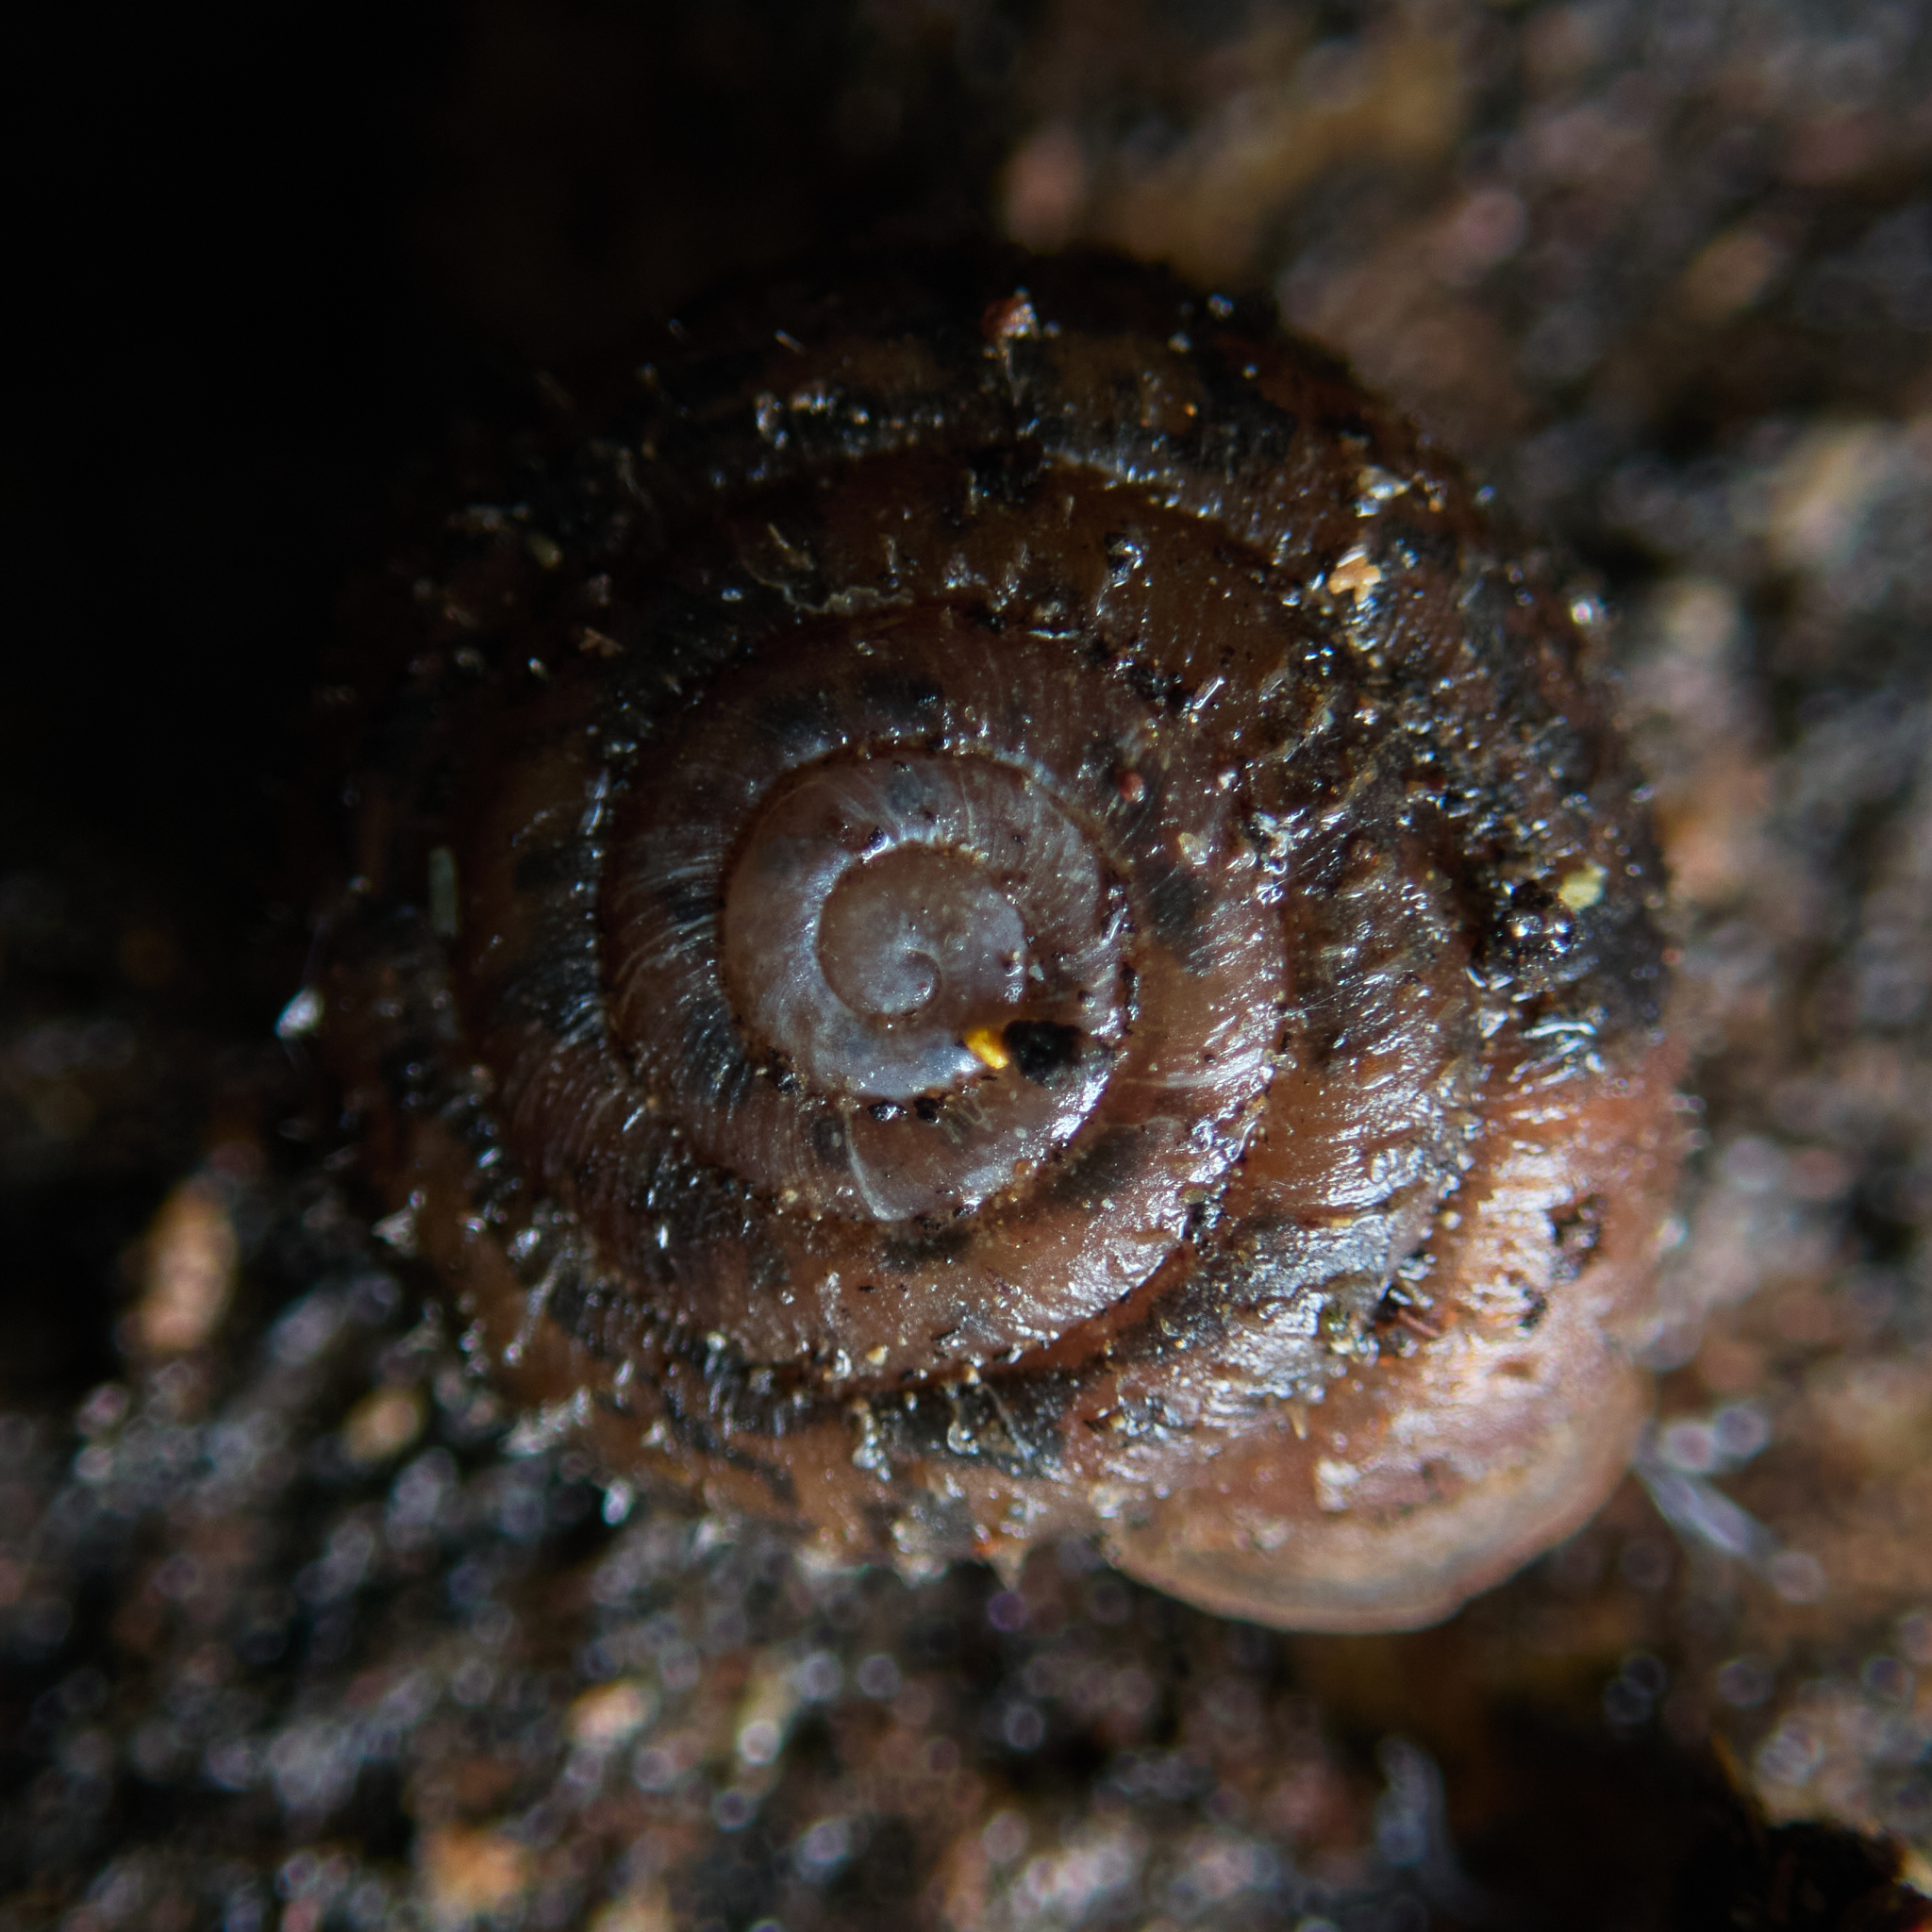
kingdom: Animalia
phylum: Mollusca
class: Gastropoda
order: Stylommatophora
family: Polygyridae
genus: Trilobopsis
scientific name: Trilobopsis loricata
